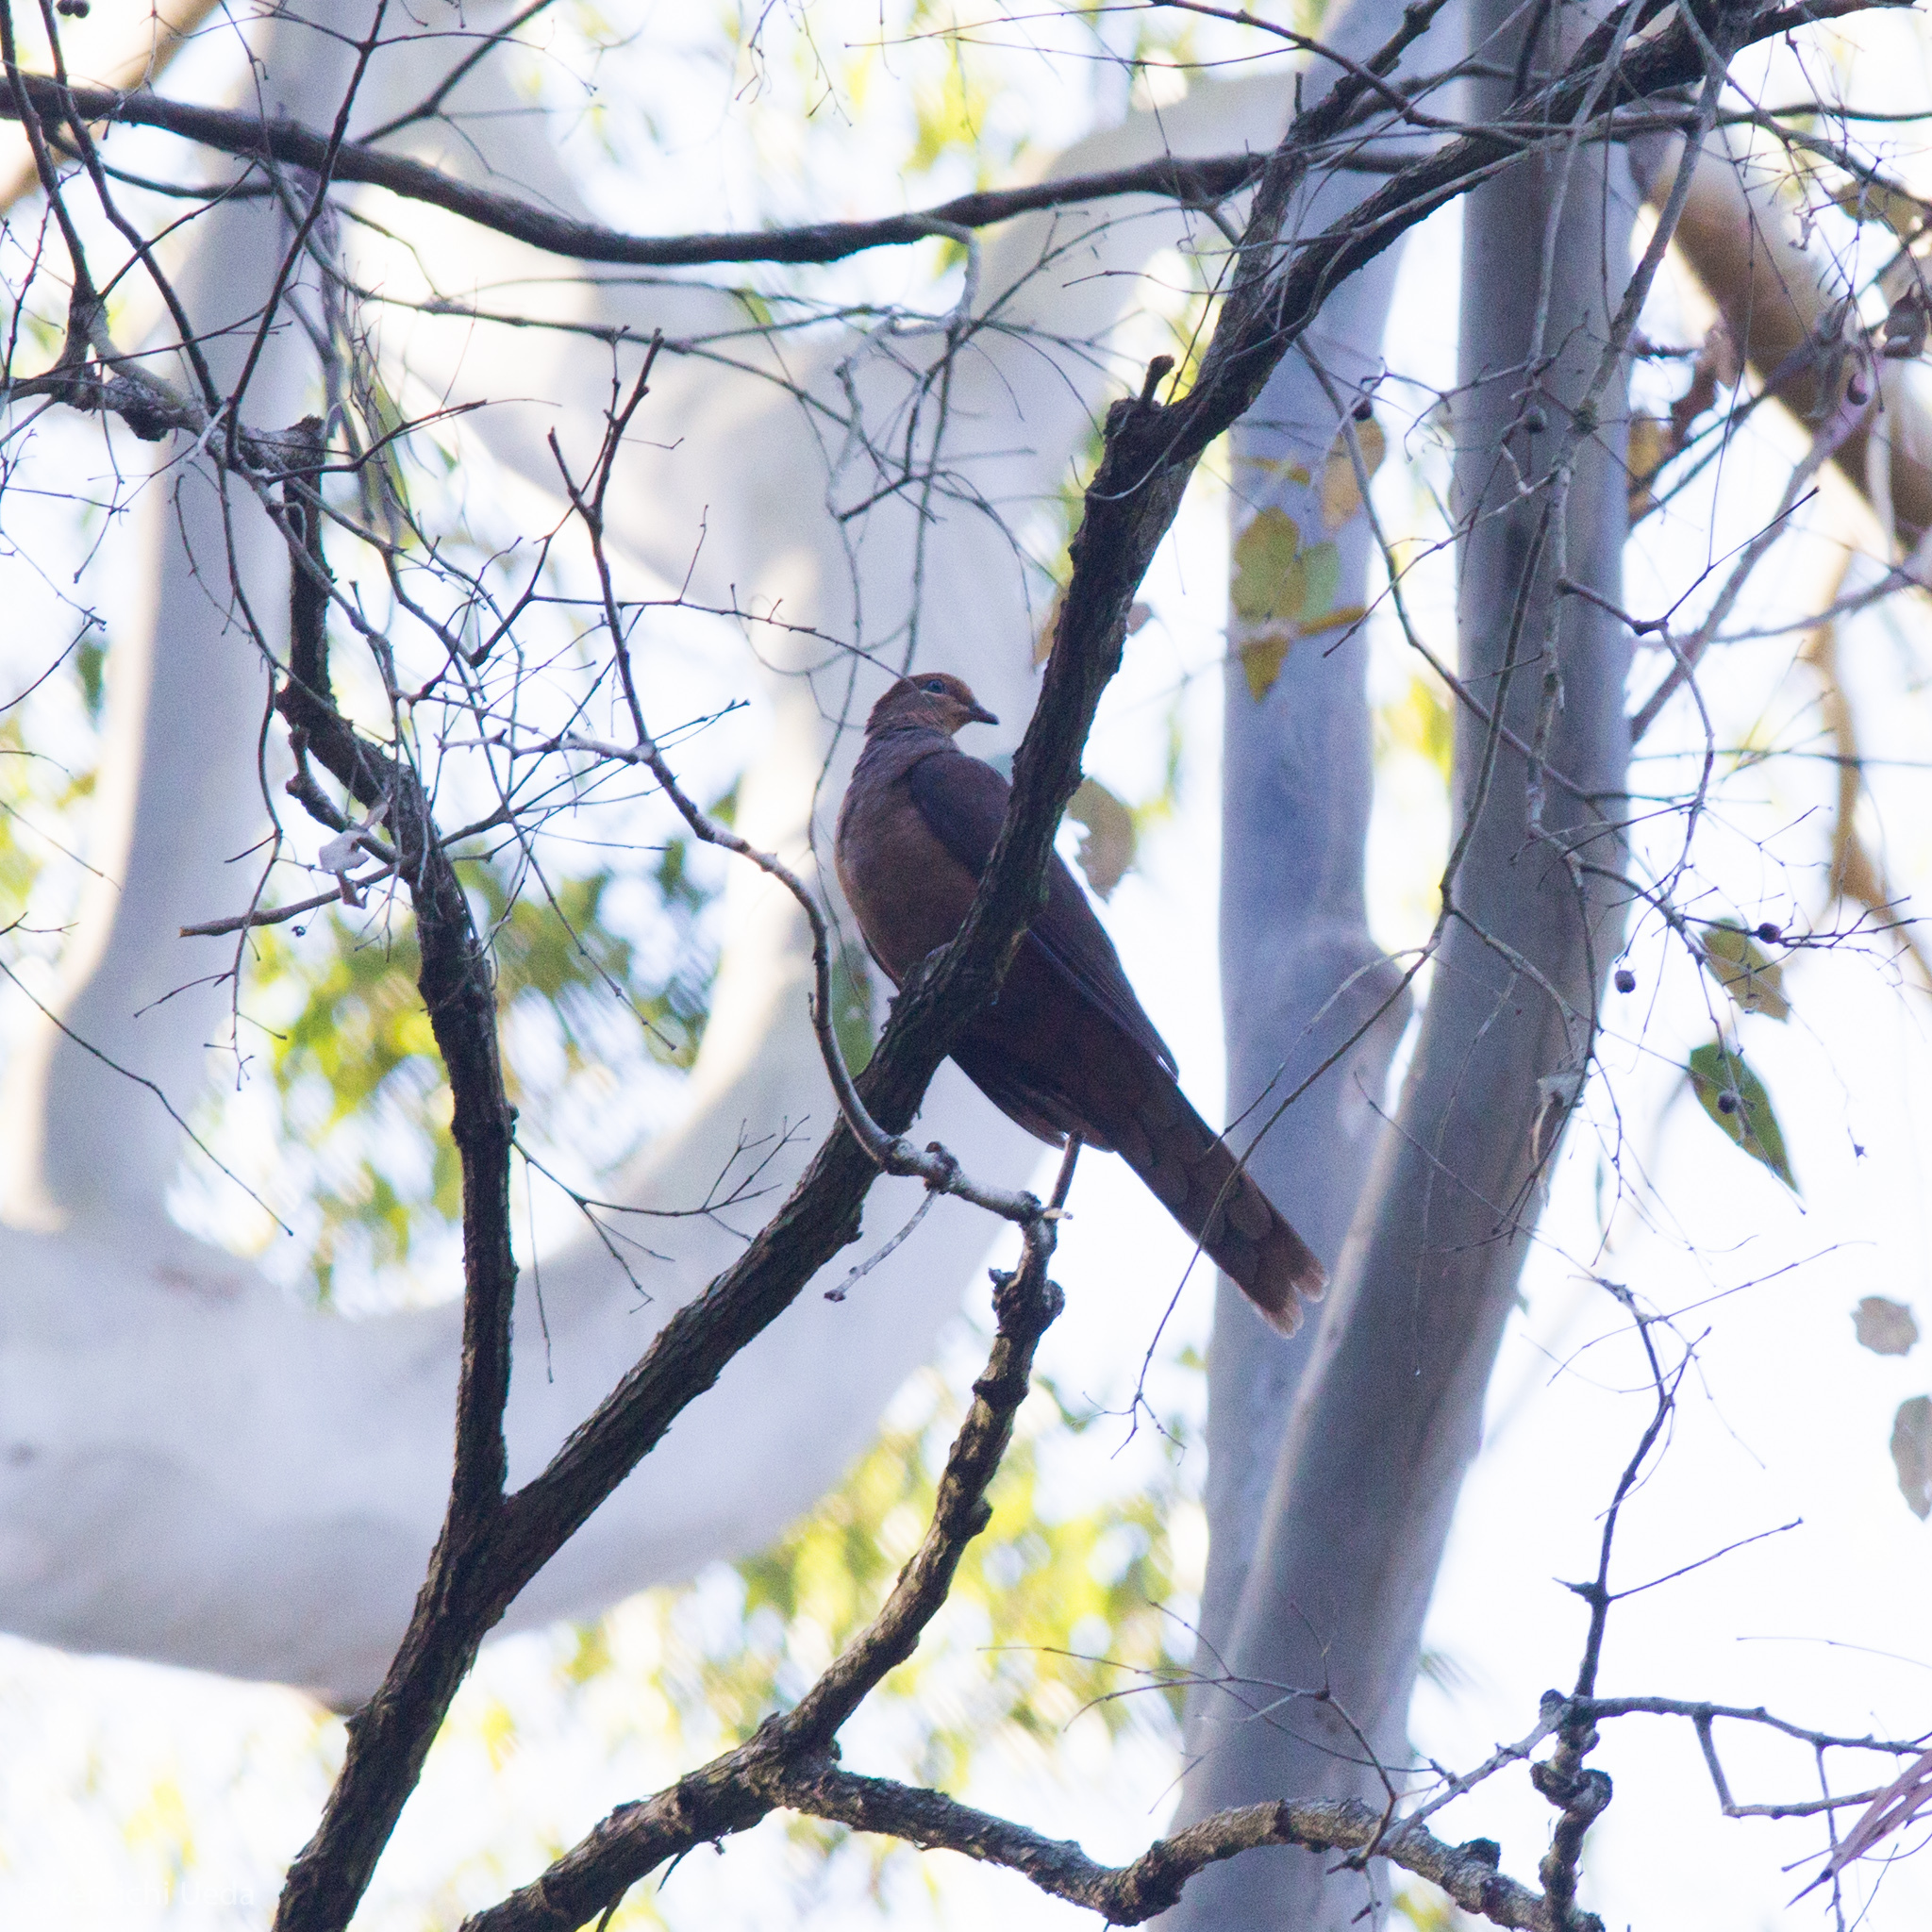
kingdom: Animalia
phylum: Chordata
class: Aves
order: Columbiformes
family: Columbidae
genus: Macropygia
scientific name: Macropygia phasianella
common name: Brown cuckoo-dove
